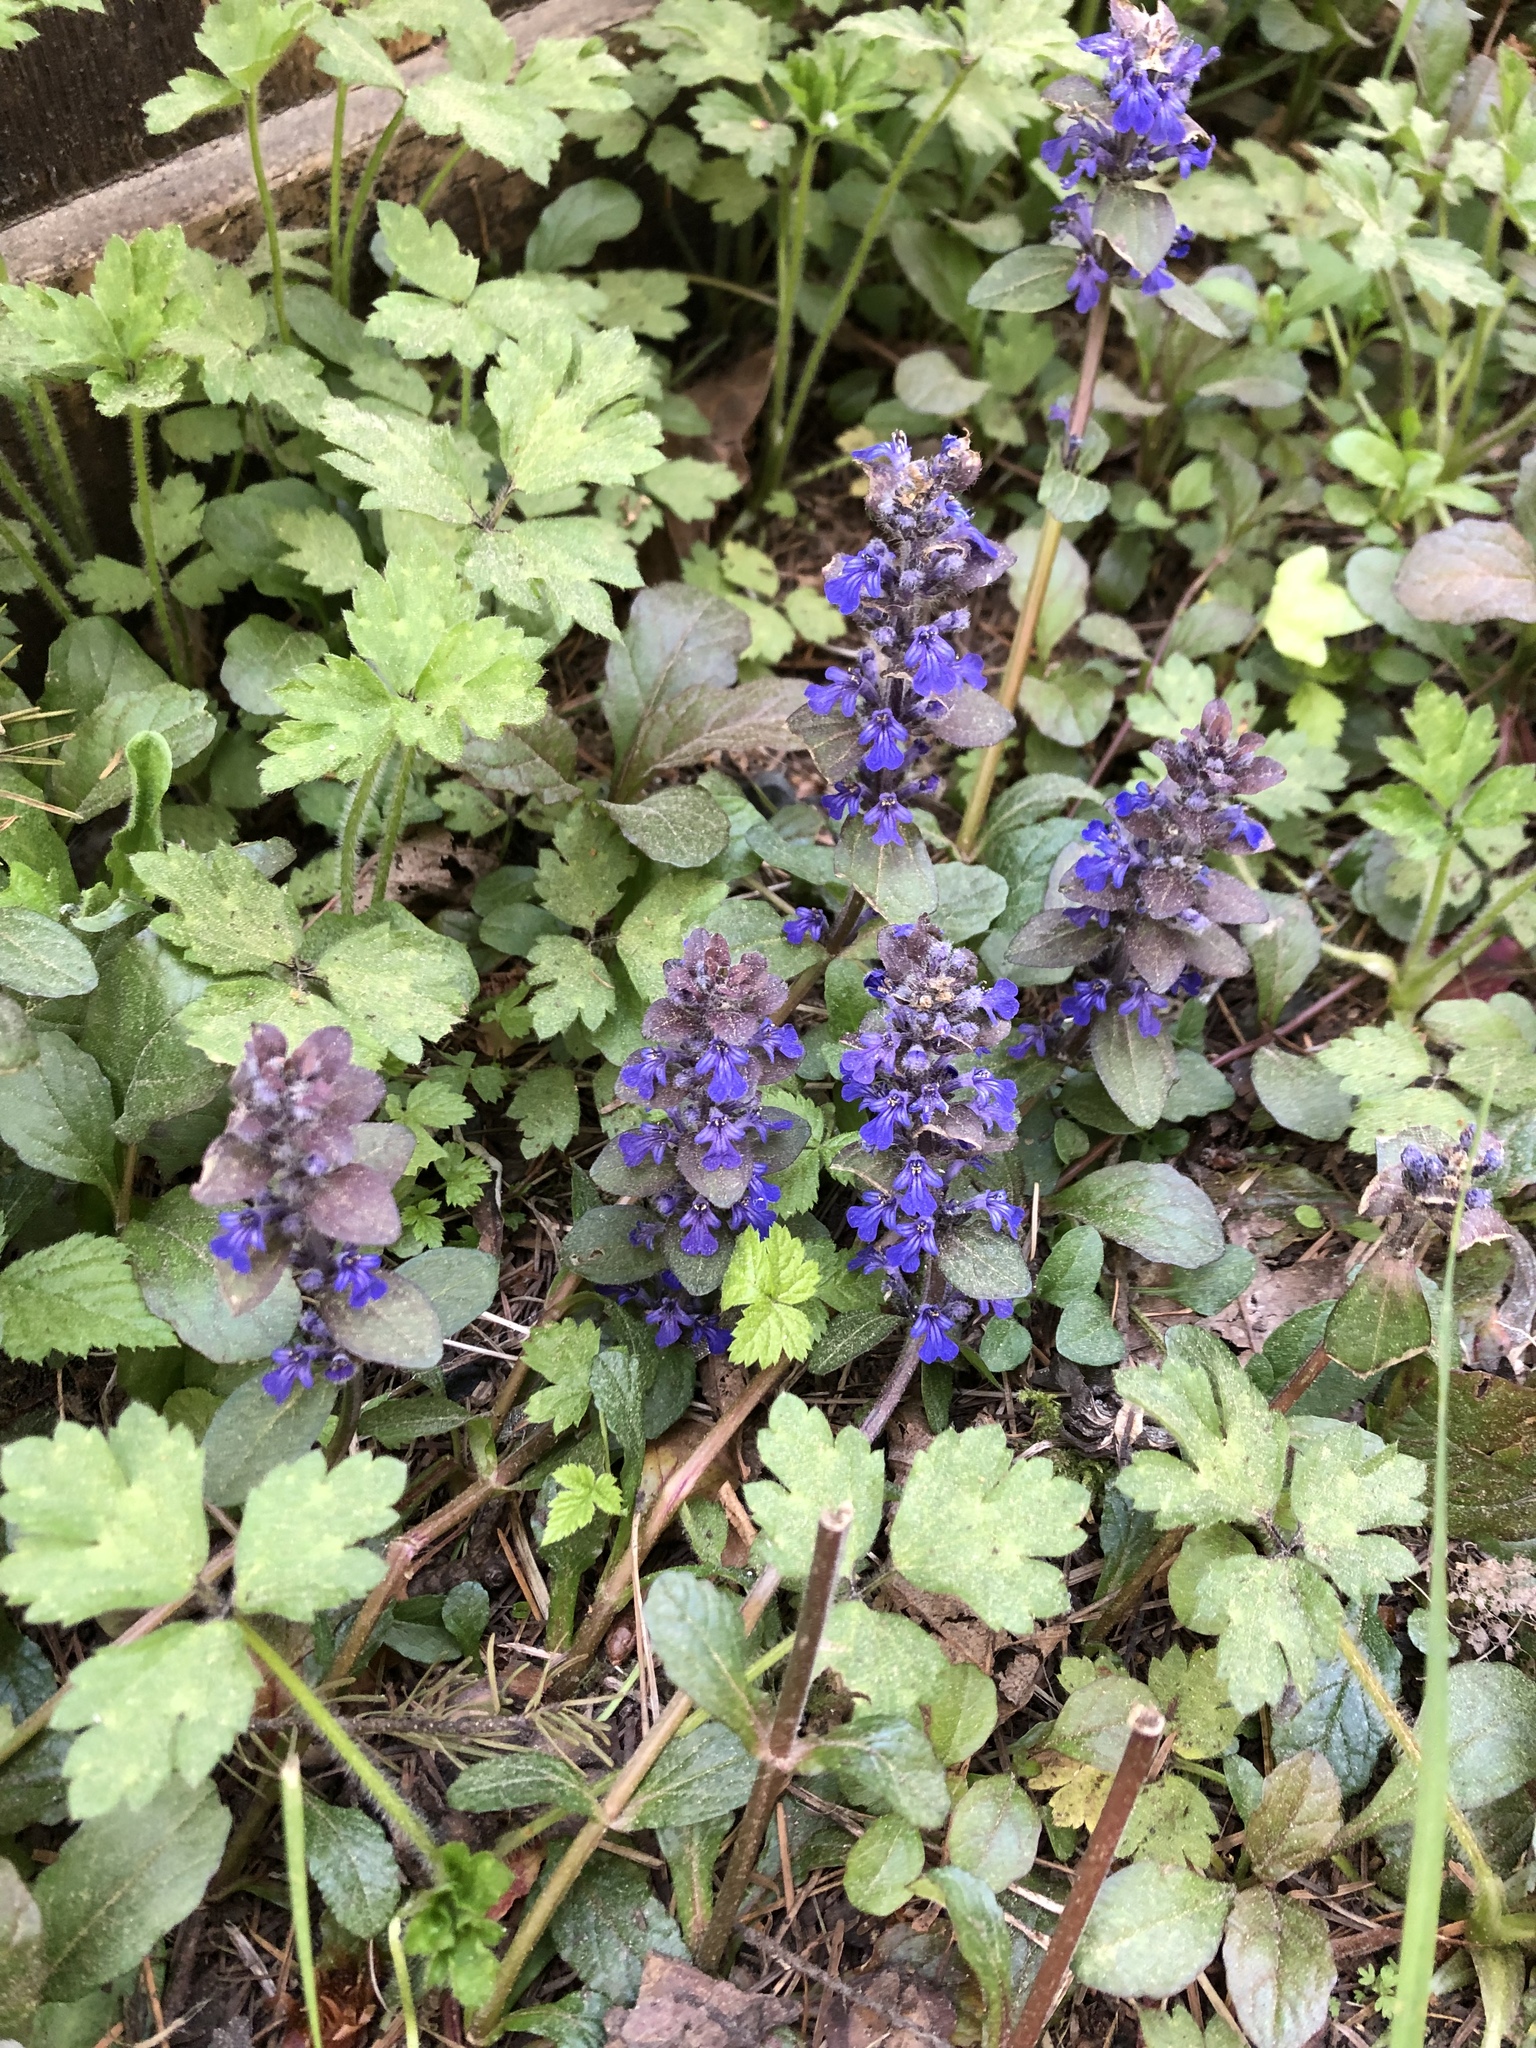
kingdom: Plantae
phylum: Tracheophyta
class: Magnoliopsida
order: Lamiales
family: Lamiaceae
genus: Ajuga
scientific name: Ajuga reptans
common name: Bugle
